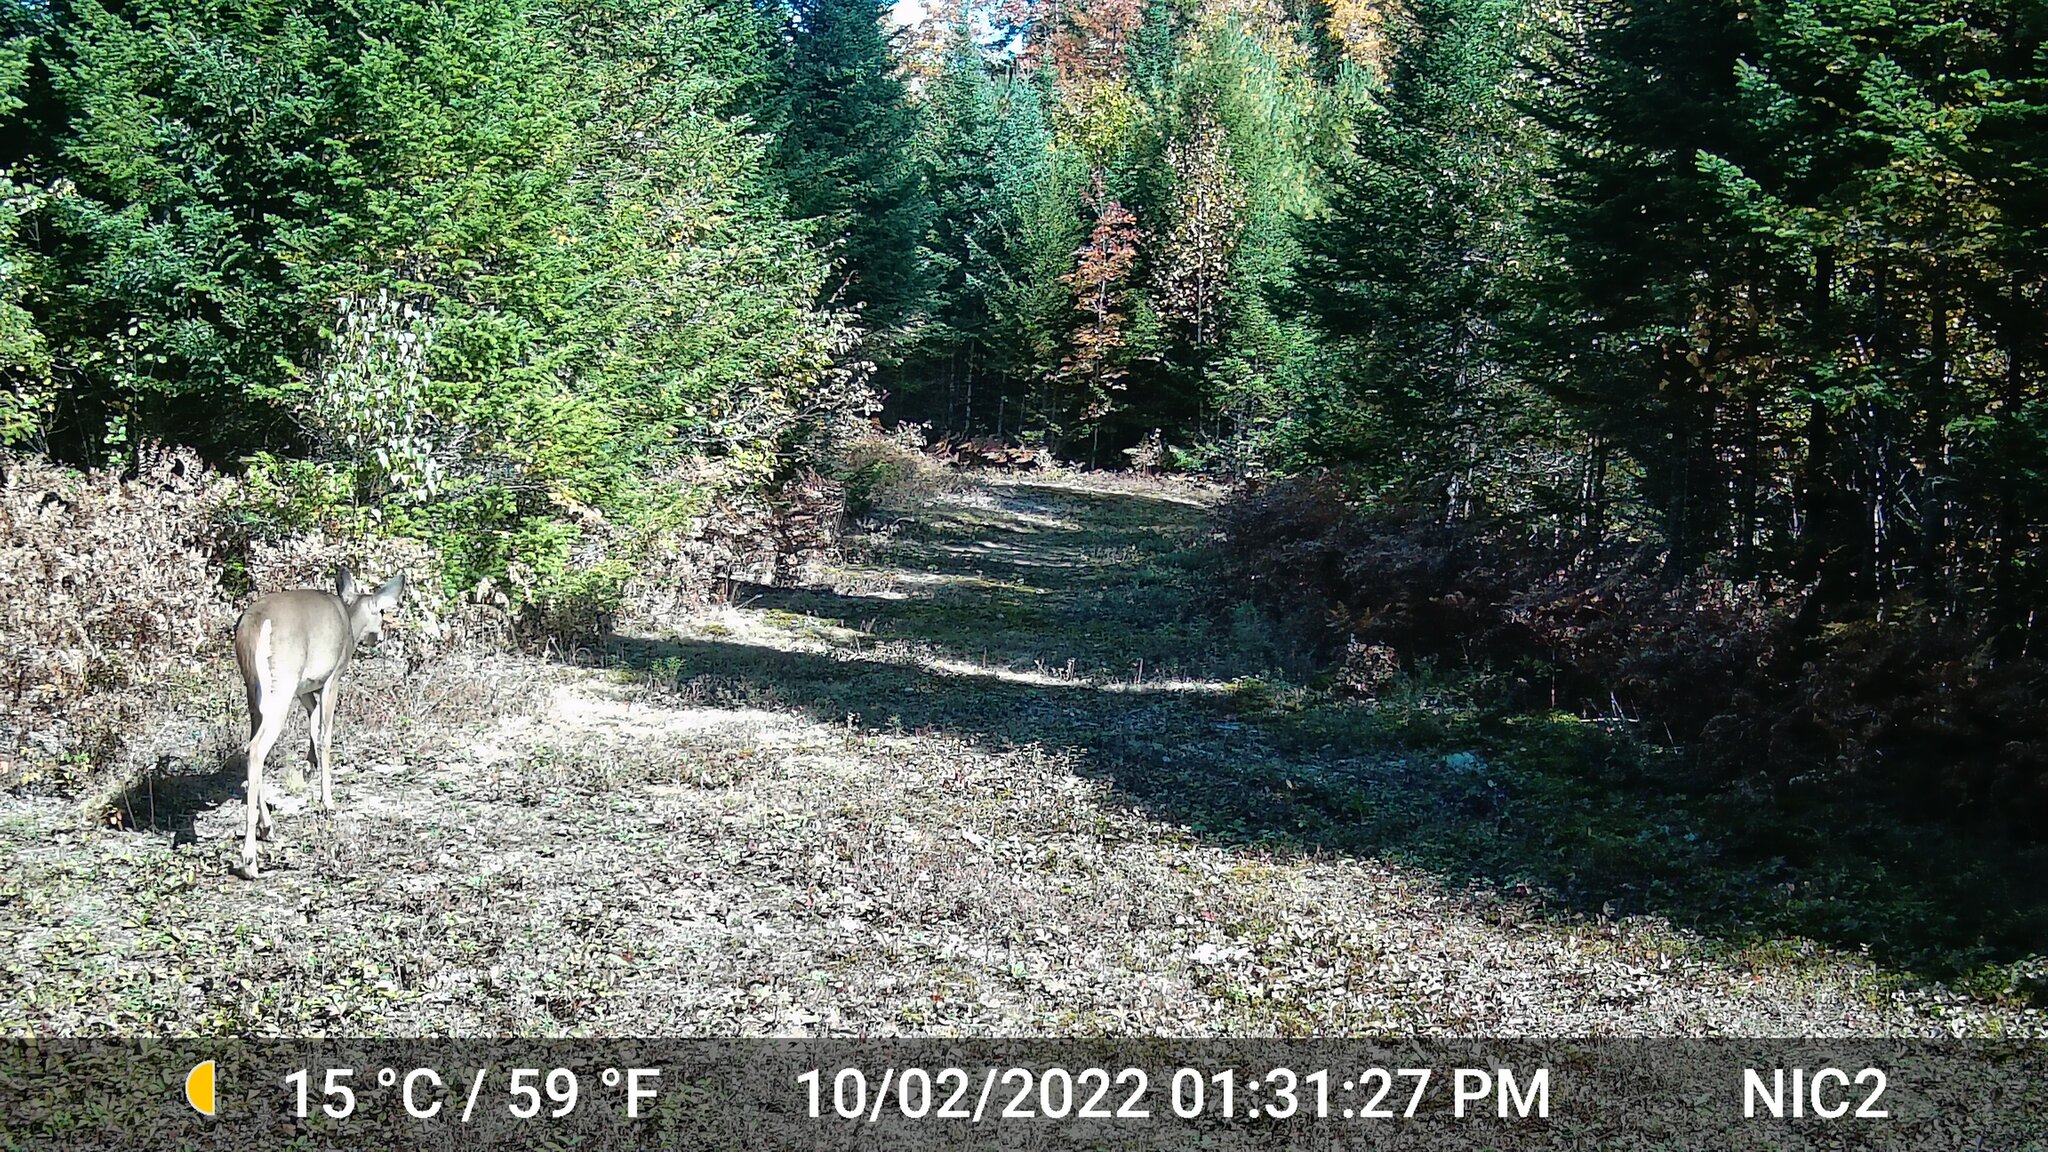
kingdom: Animalia
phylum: Chordata
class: Mammalia
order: Artiodactyla
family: Cervidae
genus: Odocoileus
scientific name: Odocoileus virginianus
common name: White-tailed deer
